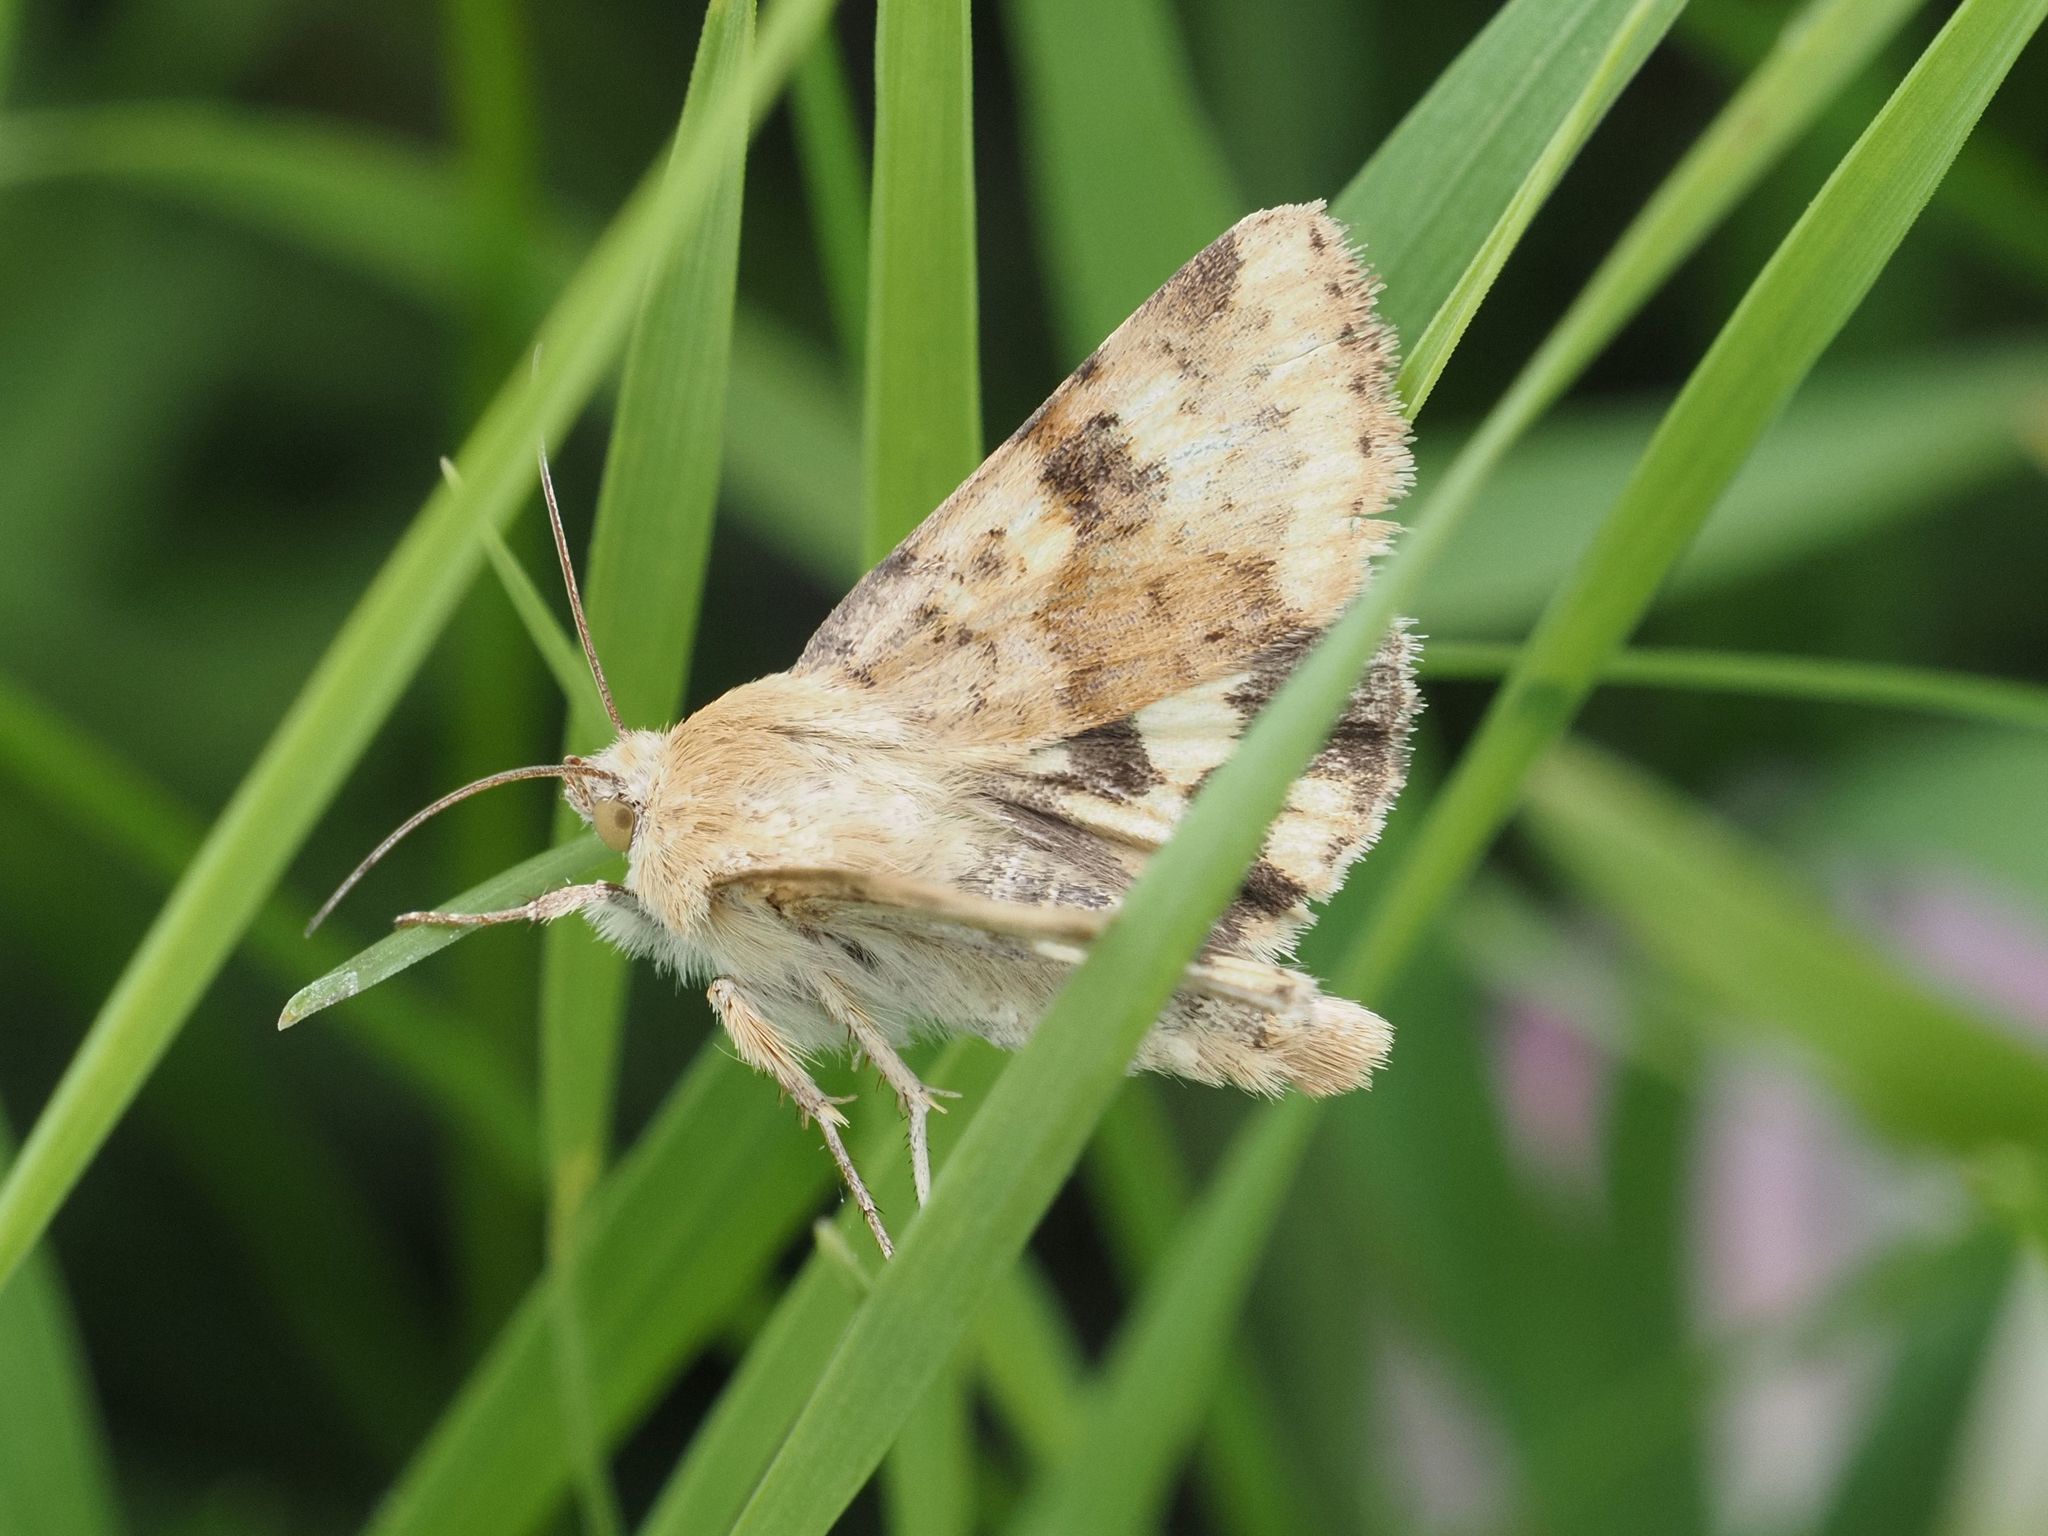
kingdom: Animalia
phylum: Arthropoda
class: Insecta
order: Lepidoptera
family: Noctuidae
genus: Heliothis
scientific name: Heliothis viriplaca
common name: Marbled clover
